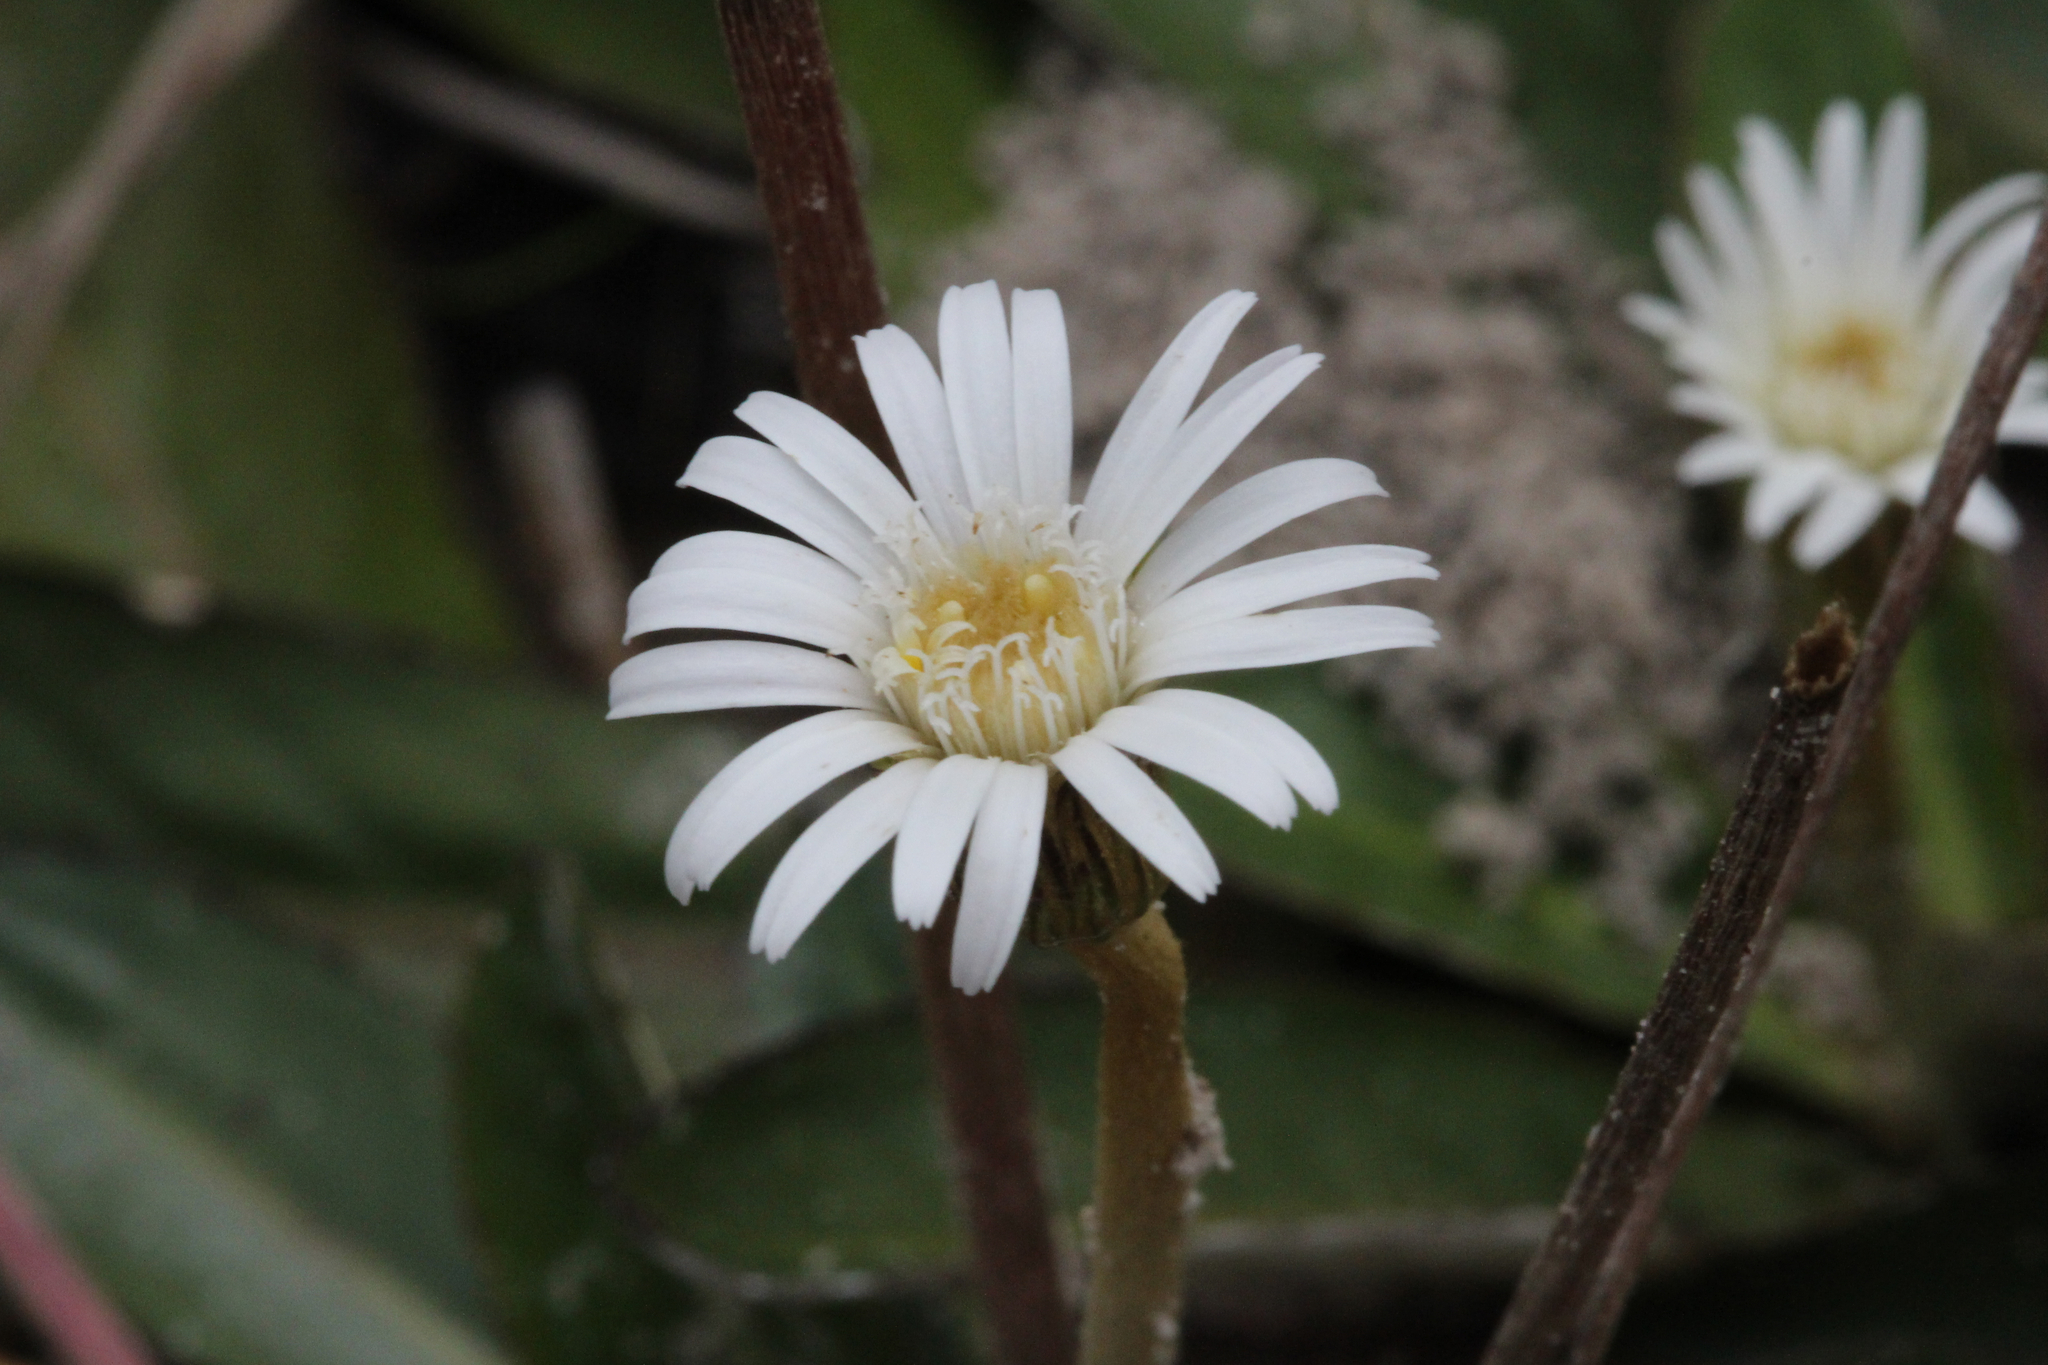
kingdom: Plantae
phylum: Tracheophyta
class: Magnoliopsida
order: Asterales
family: Asteraceae
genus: Chaptalia
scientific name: Chaptalia tomentosa
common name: Woolly sunbonnet
